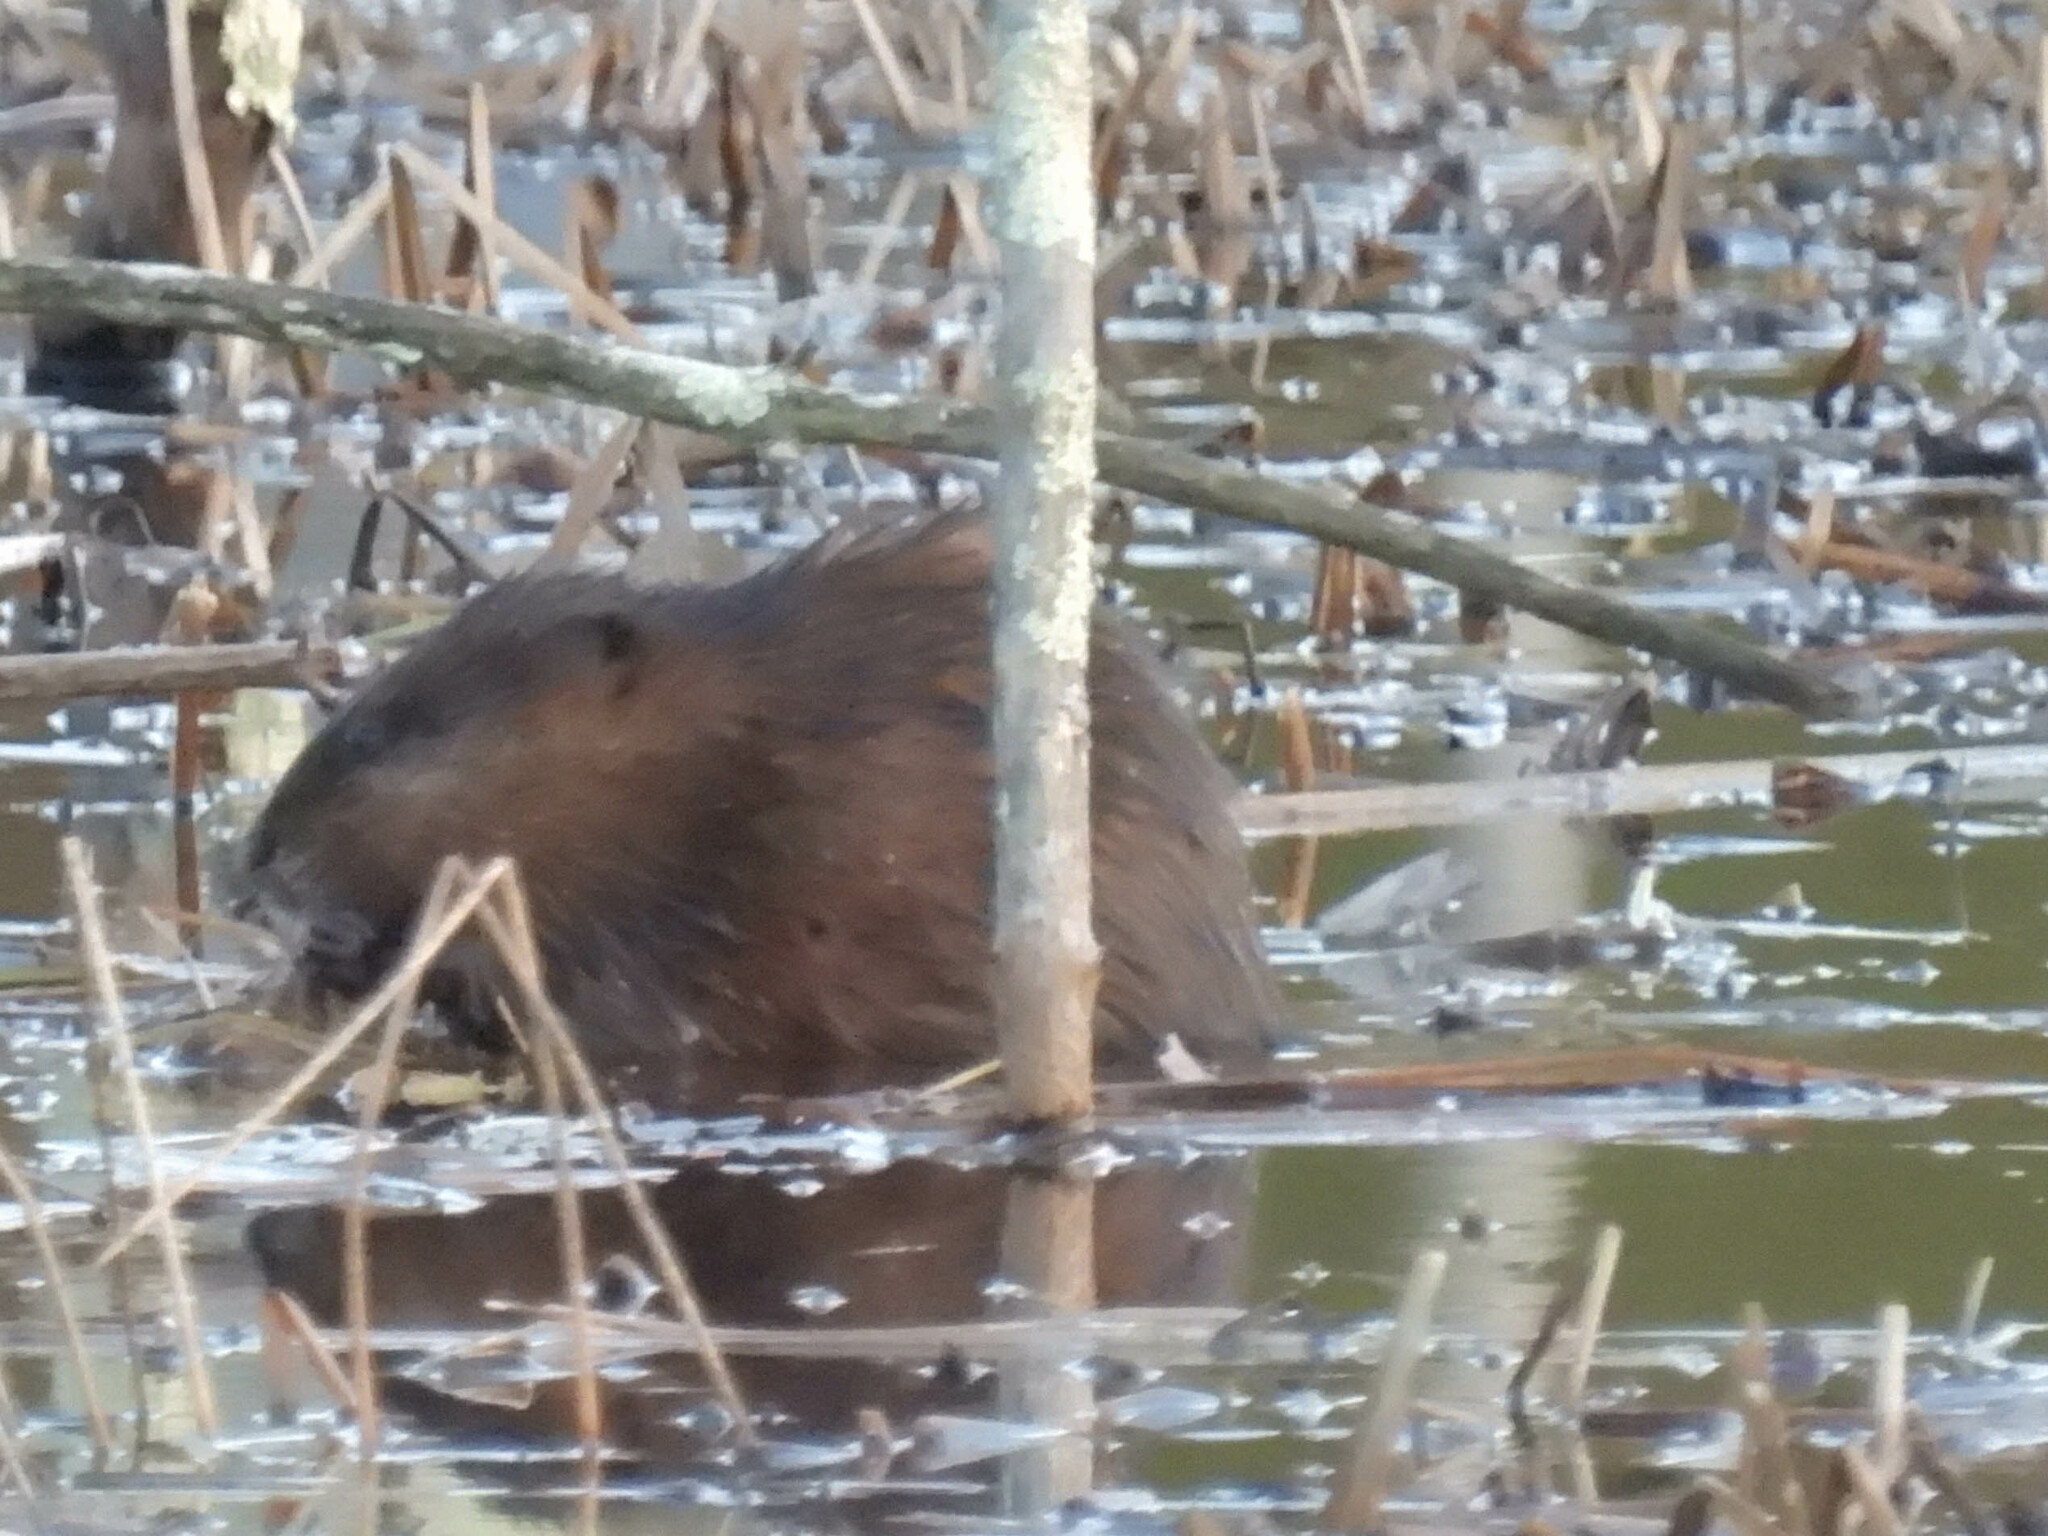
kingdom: Animalia
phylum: Chordata
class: Mammalia
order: Rodentia
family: Cricetidae
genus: Ondatra
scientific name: Ondatra zibethicus
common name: Muskrat
